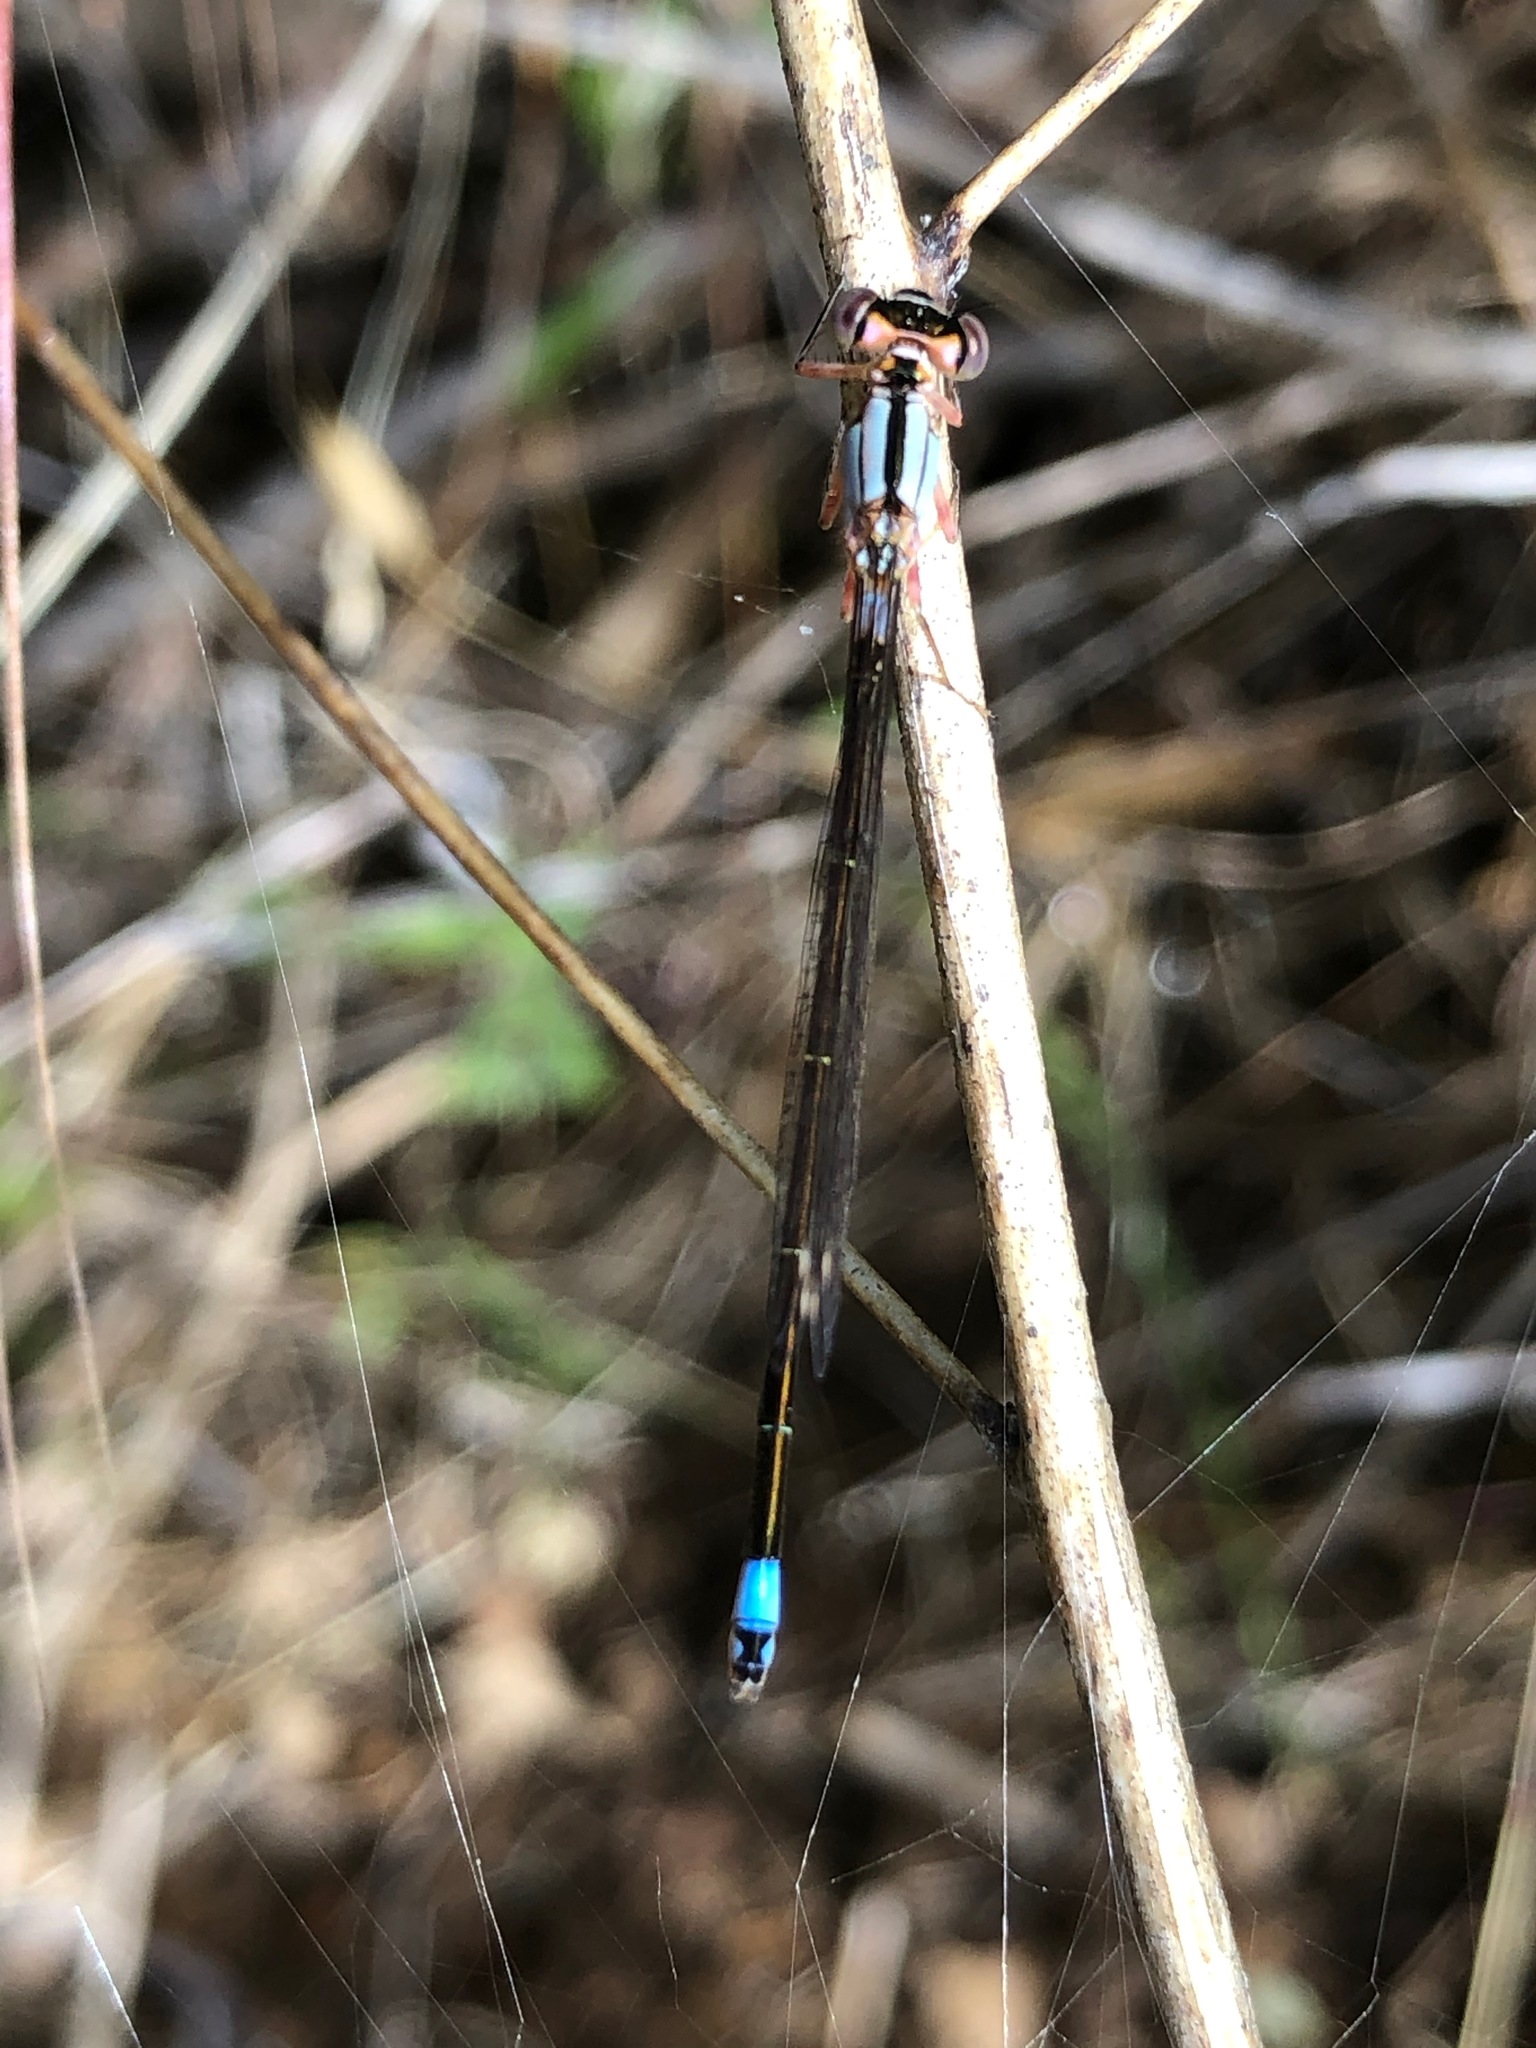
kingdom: Animalia
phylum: Arthropoda
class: Insecta
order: Odonata
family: Coenagrionidae
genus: Ischnura
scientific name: Ischnura cervula
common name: Pacific forktail
